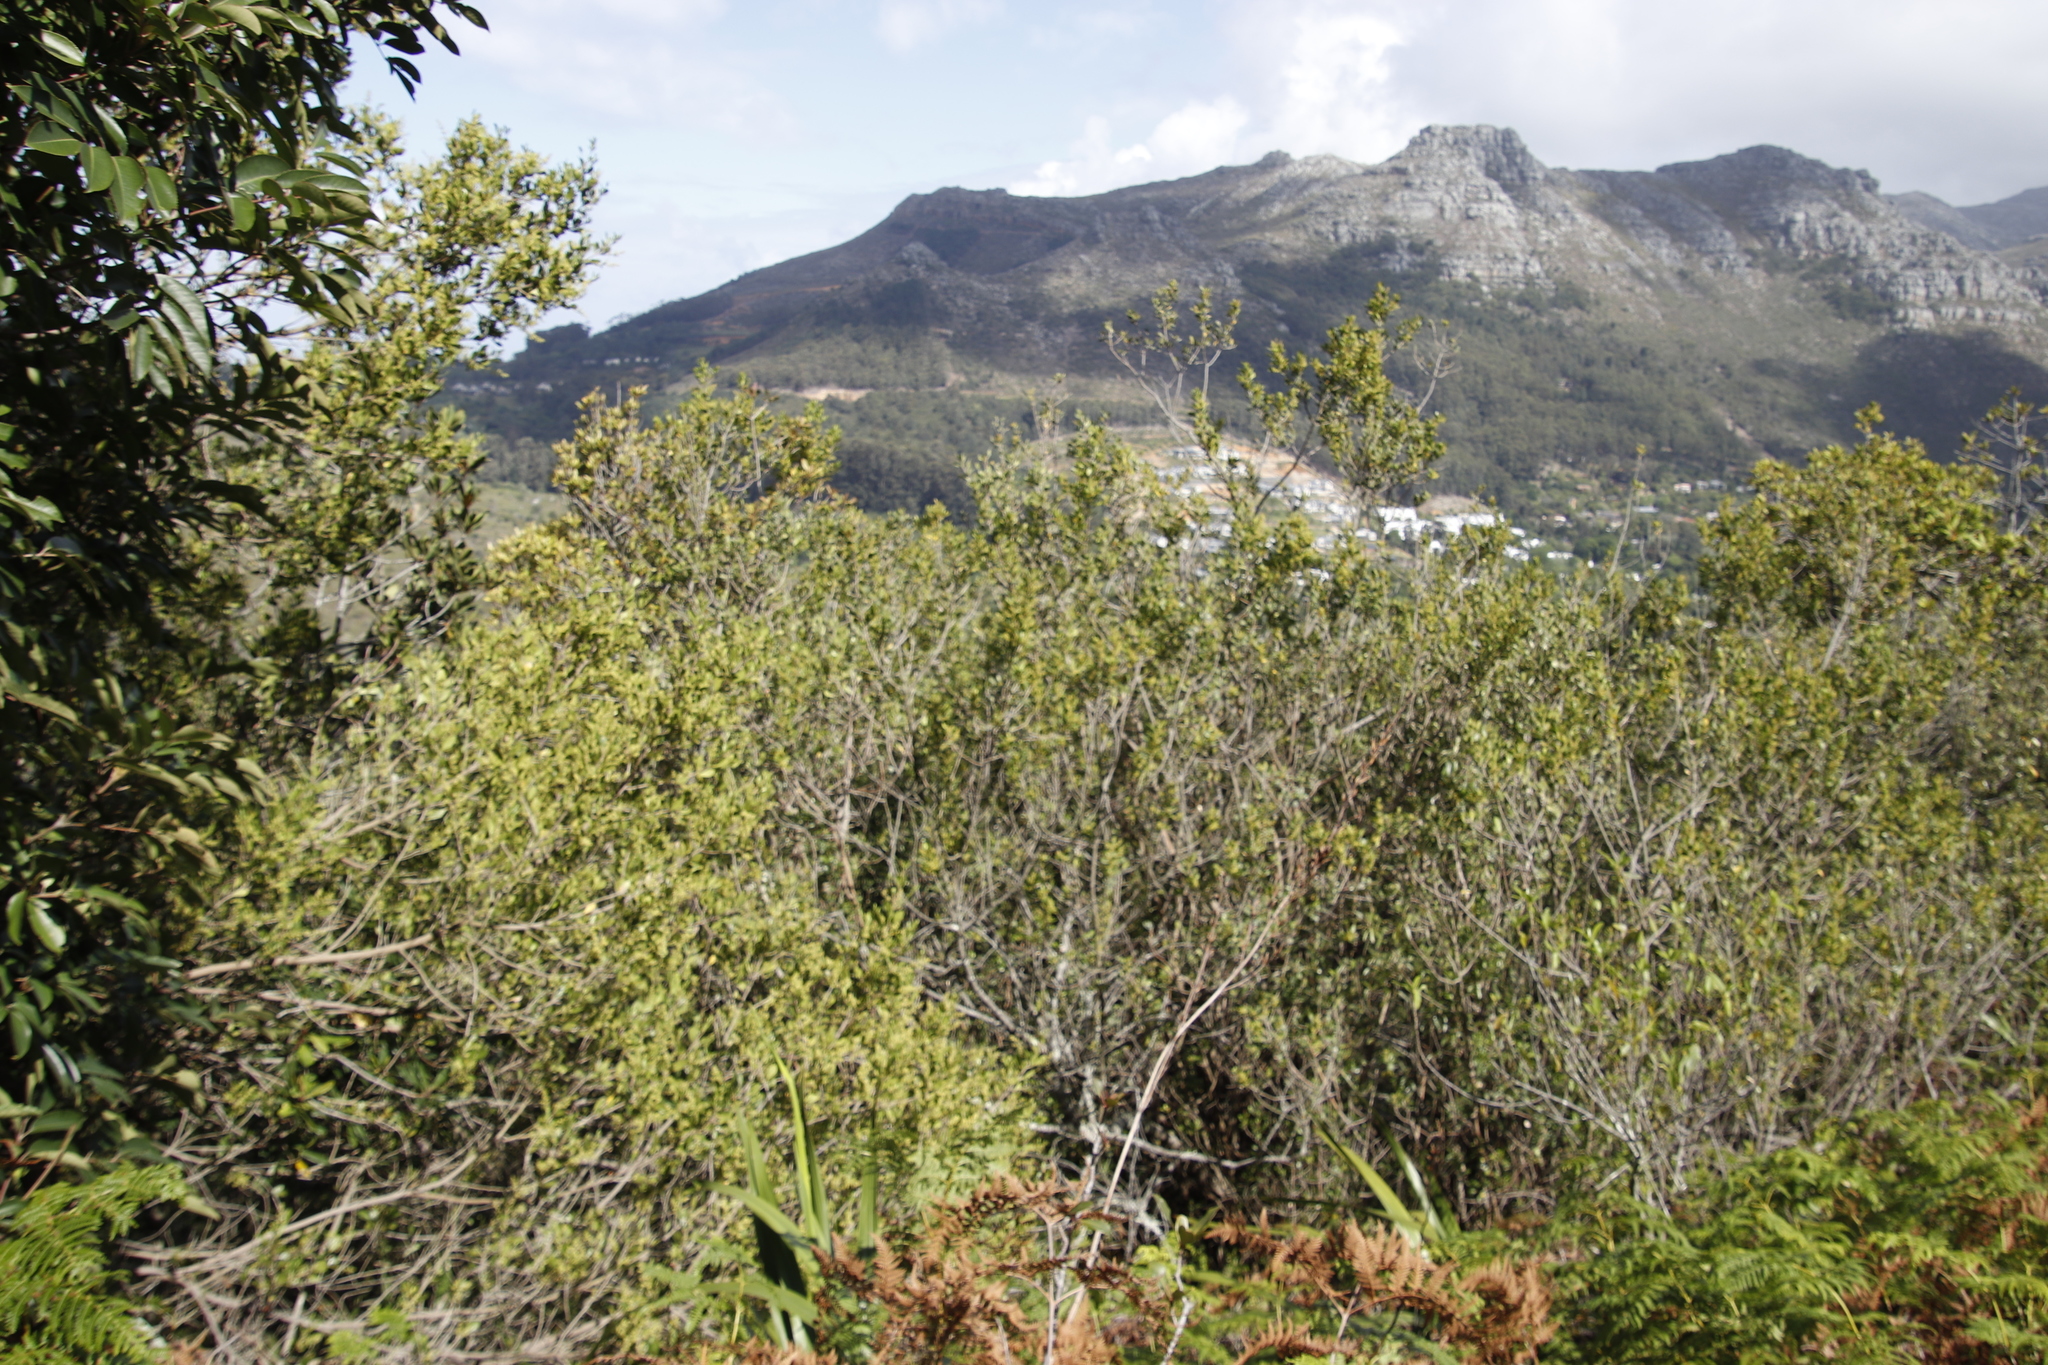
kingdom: Plantae
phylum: Tracheophyta
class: Magnoliopsida
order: Sapindales
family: Anacardiaceae
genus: Searsia
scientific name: Searsia lucida
